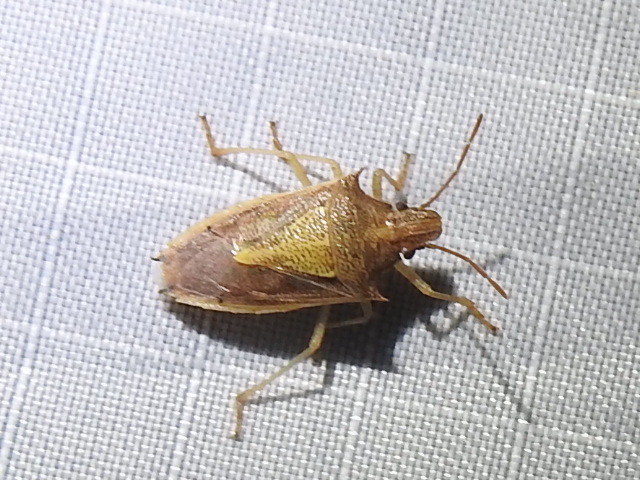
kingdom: Animalia
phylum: Arthropoda
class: Insecta
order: Hemiptera
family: Pentatomidae
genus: Oebalus
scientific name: Oebalus pugnax
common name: Rice stink bug
